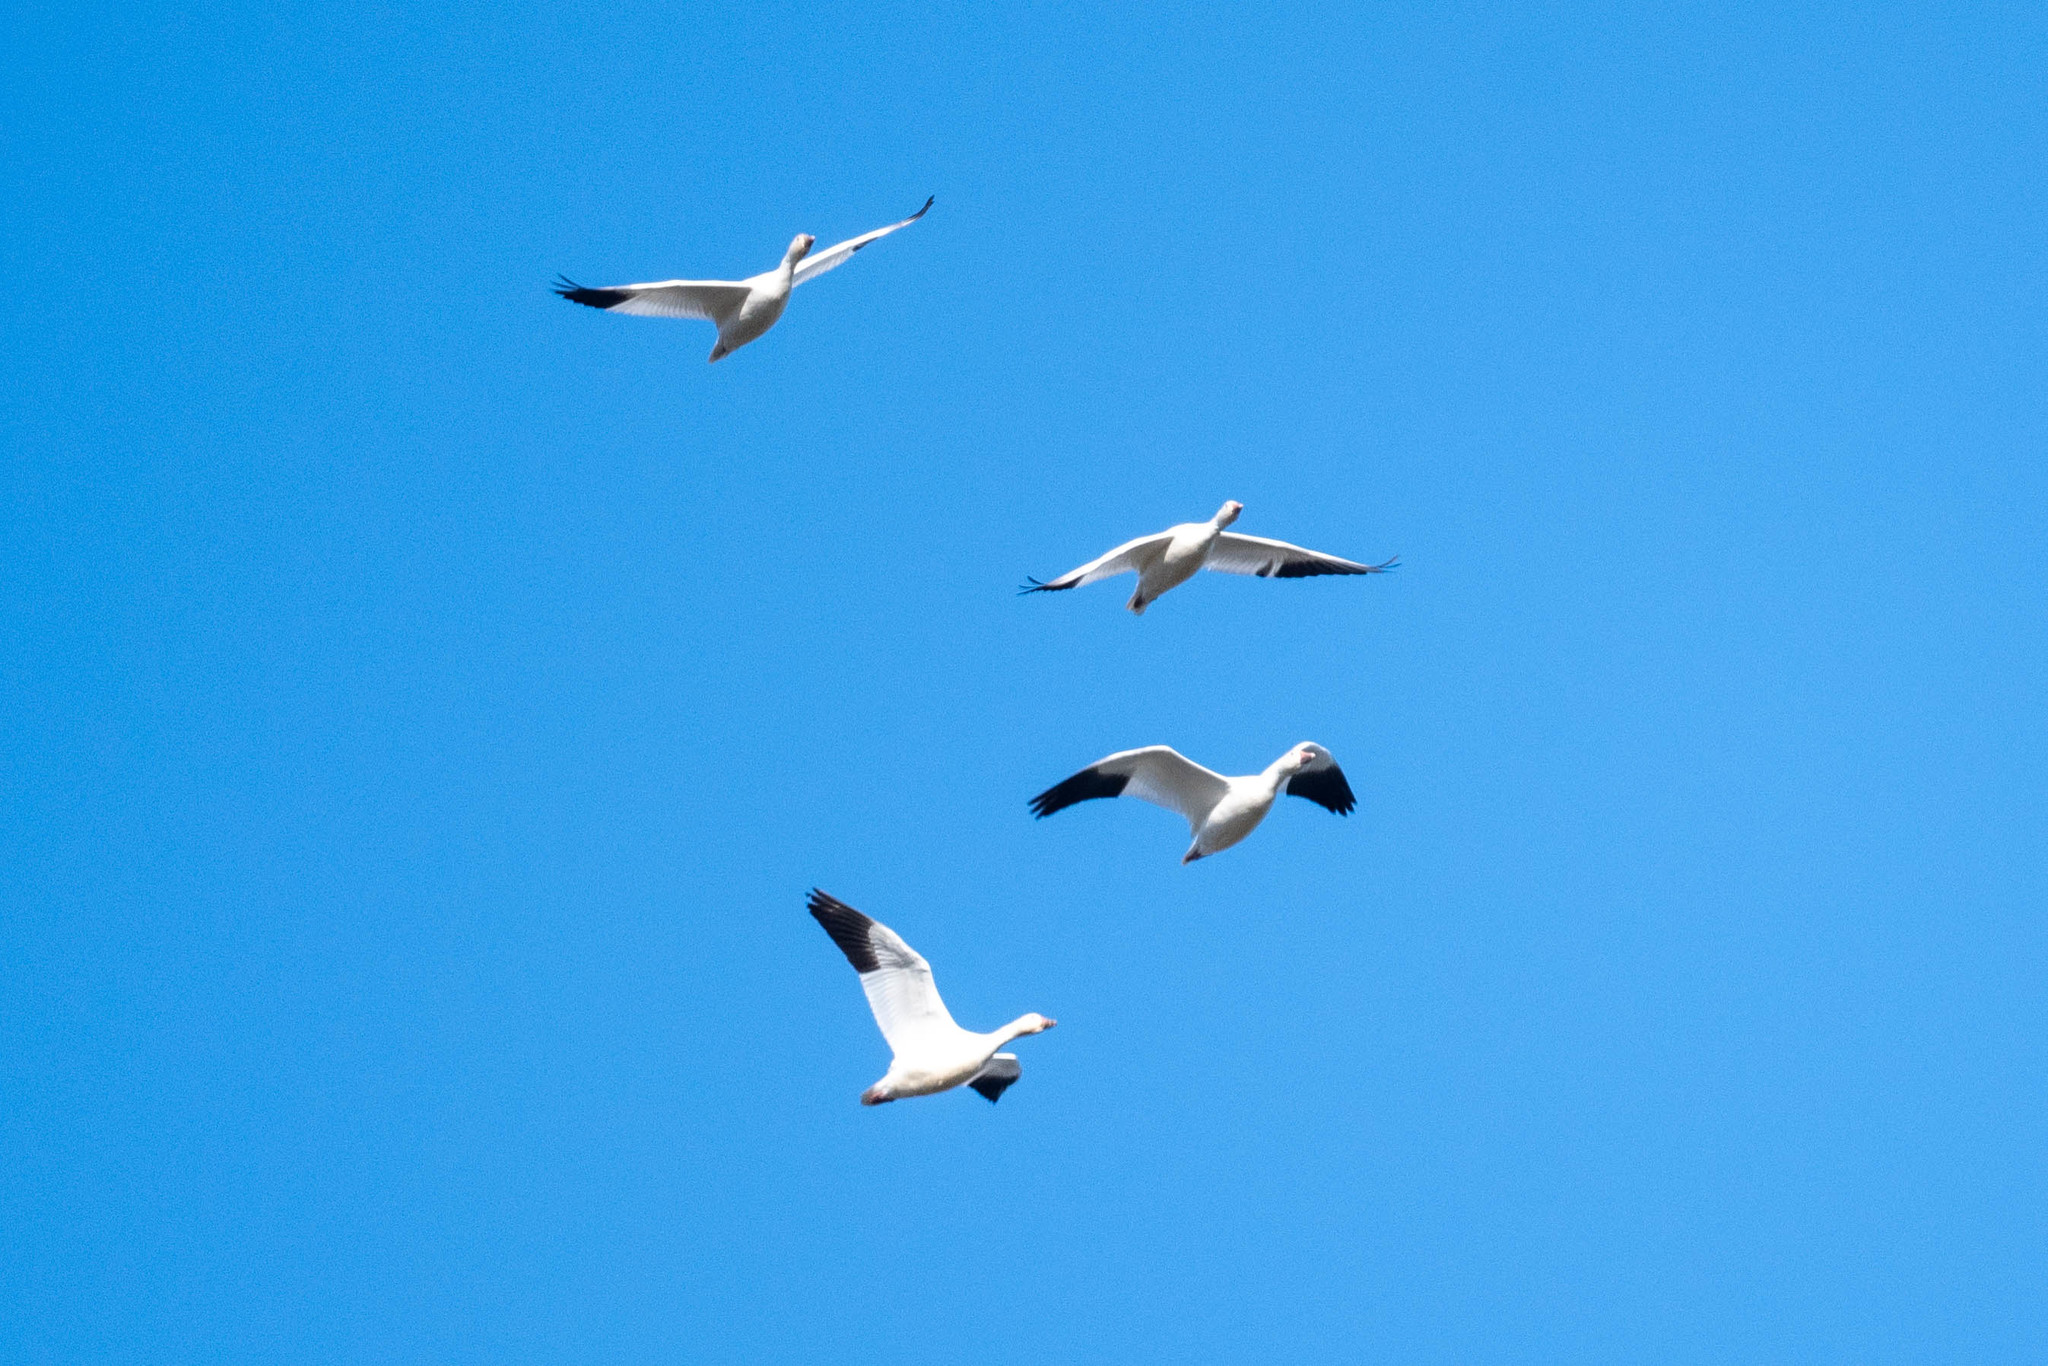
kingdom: Animalia
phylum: Chordata
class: Aves
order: Anseriformes
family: Anatidae
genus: Anser
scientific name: Anser caerulescens
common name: Snow goose
